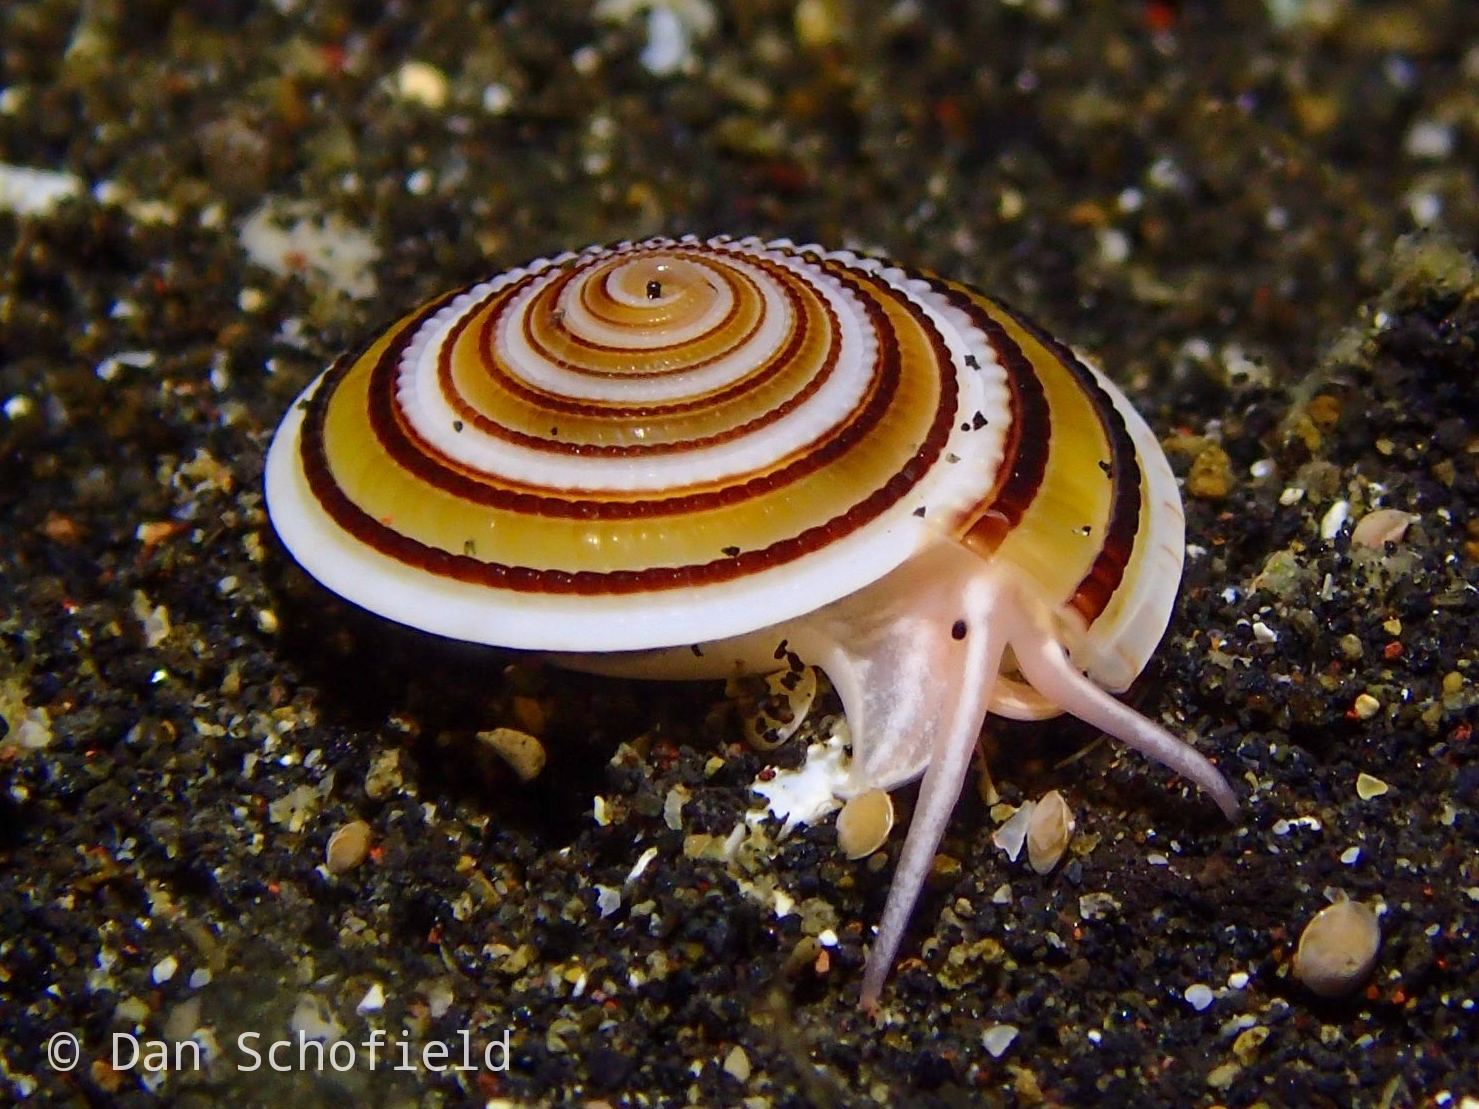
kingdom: Animalia
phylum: Mollusca
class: Gastropoda
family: Architectonicidae
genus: Architectonica
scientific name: Architectonica perspectiva
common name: European sundial snail
